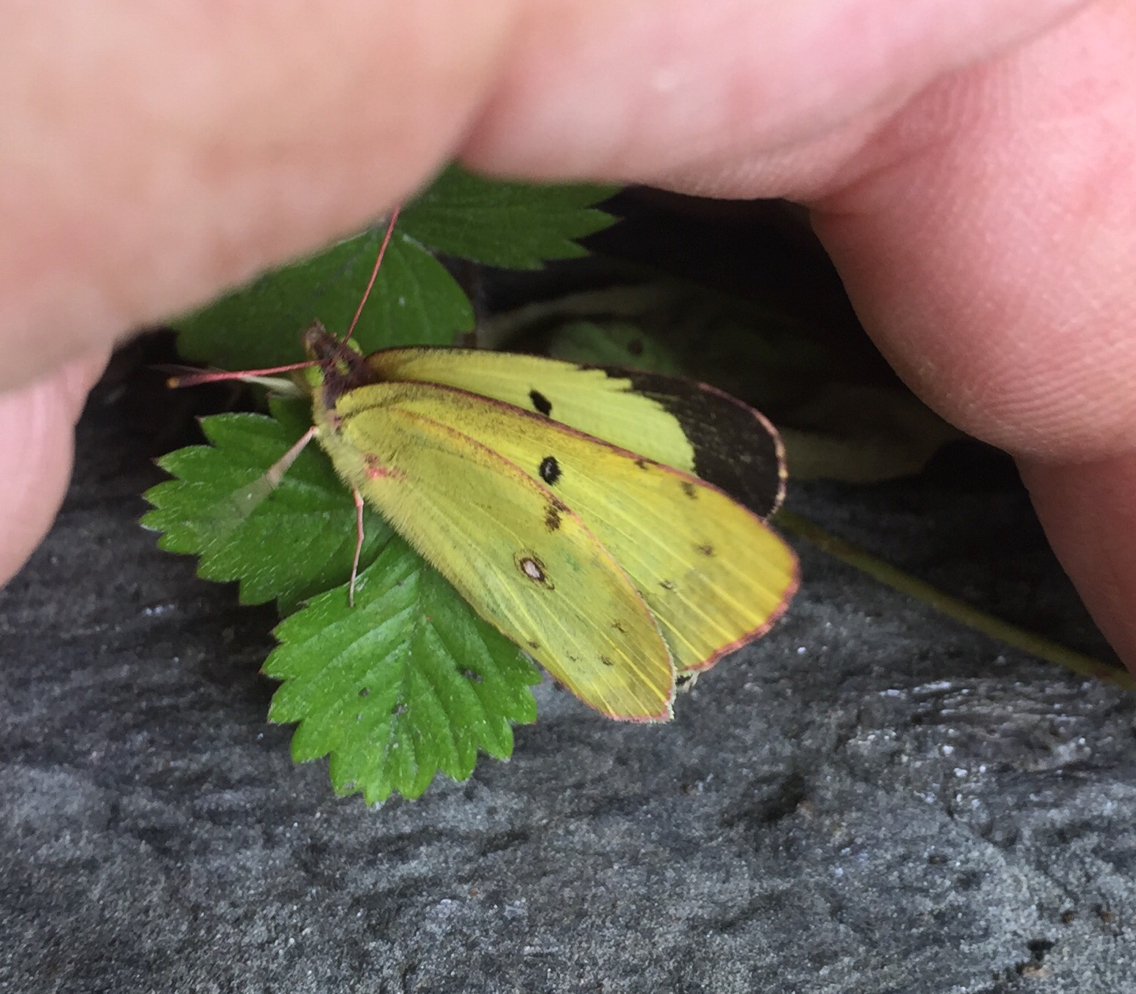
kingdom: Animalia
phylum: Arthropoda
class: Insecta
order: Lepidoptera
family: Pieridae
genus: Colias
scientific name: Colias philodice
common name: Clouded sulphur
